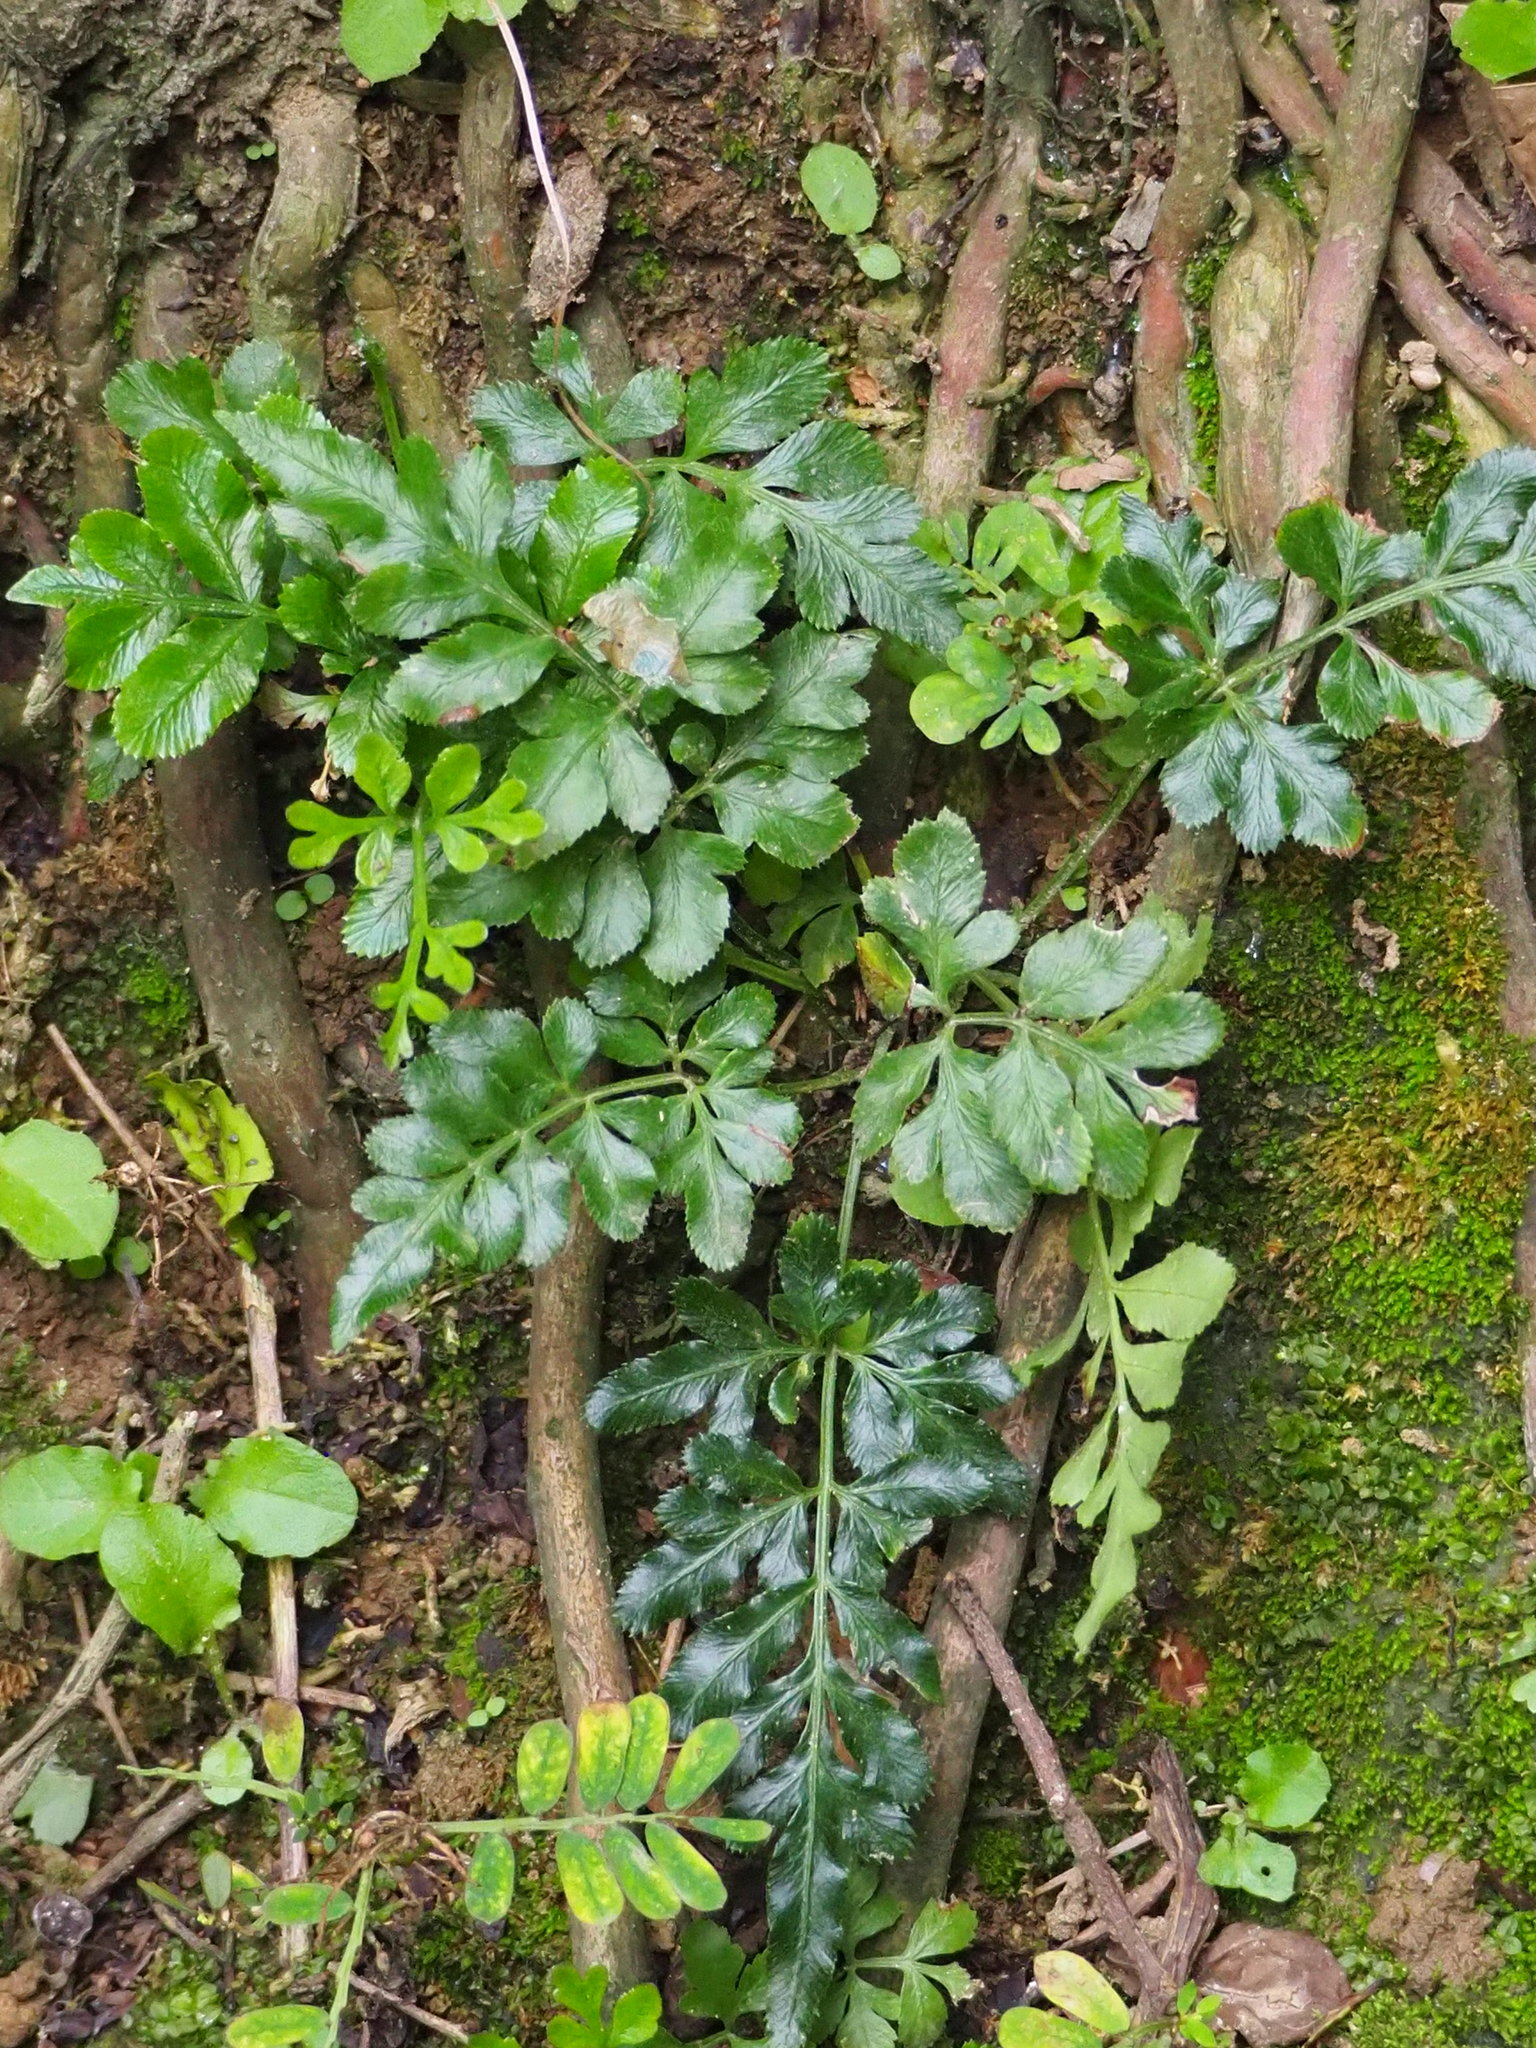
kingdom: Plantae
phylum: Tracheophyta
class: Polypodiopsida
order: Polypodiales
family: Pteridaceae
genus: Pteris
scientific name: Pteris ensiformis
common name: Sword brake
